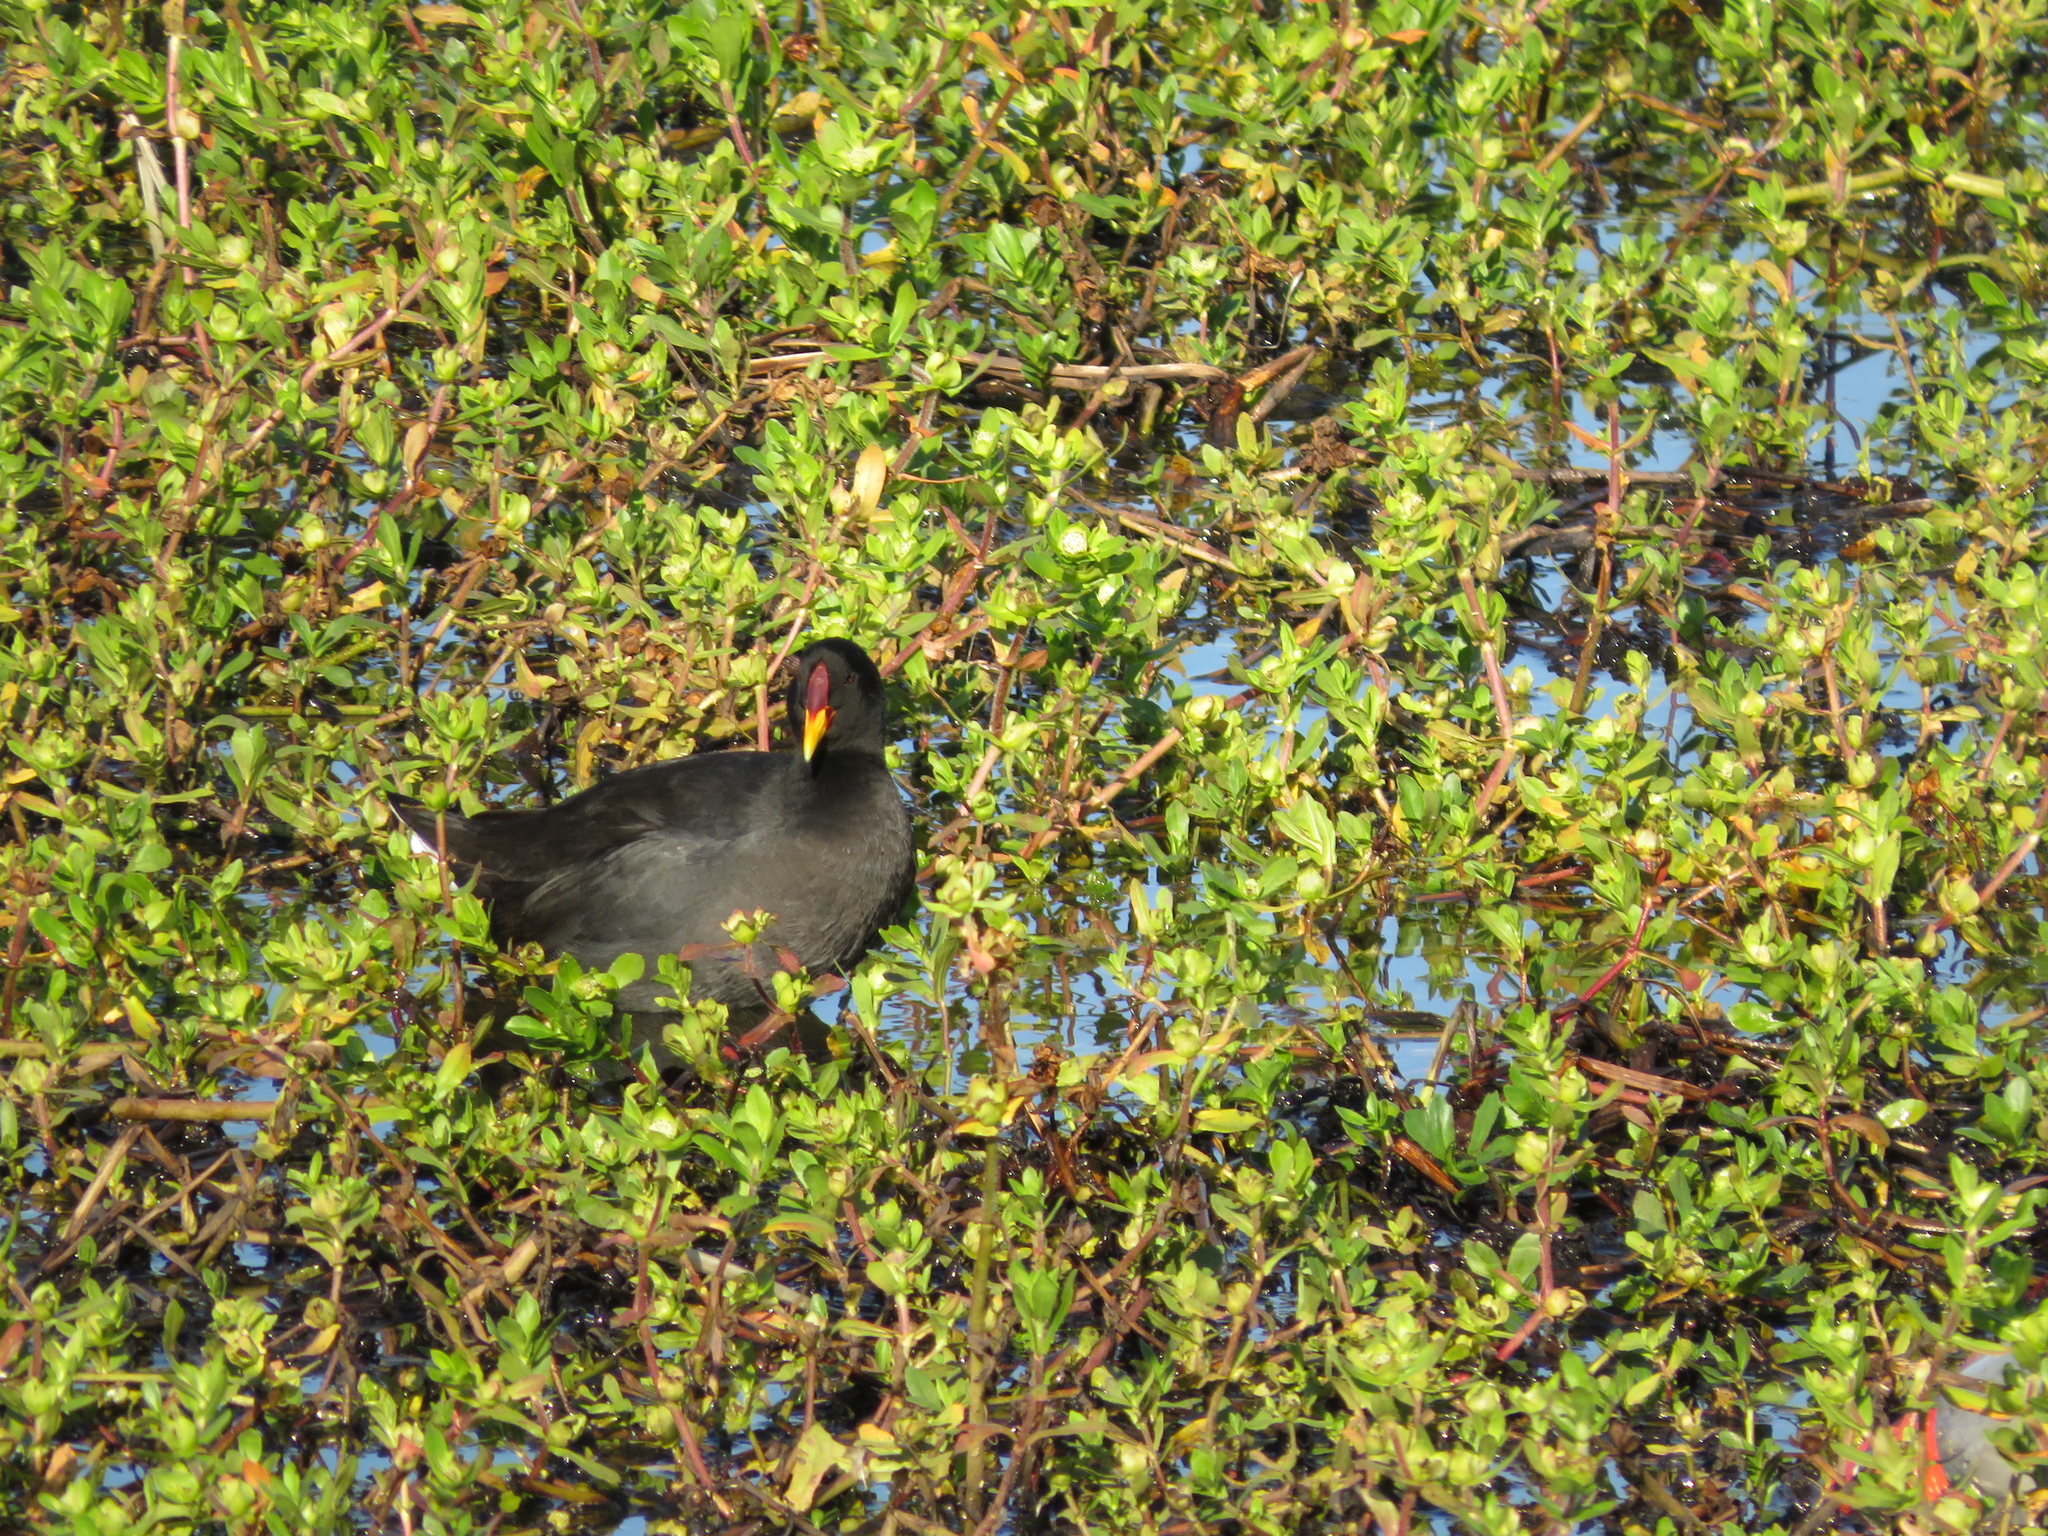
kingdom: Animalia
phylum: Chordata
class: Aves
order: Gruiformes
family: Rallidae
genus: Fulica
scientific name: Fulica rufifrons
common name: Red-fronted coot
